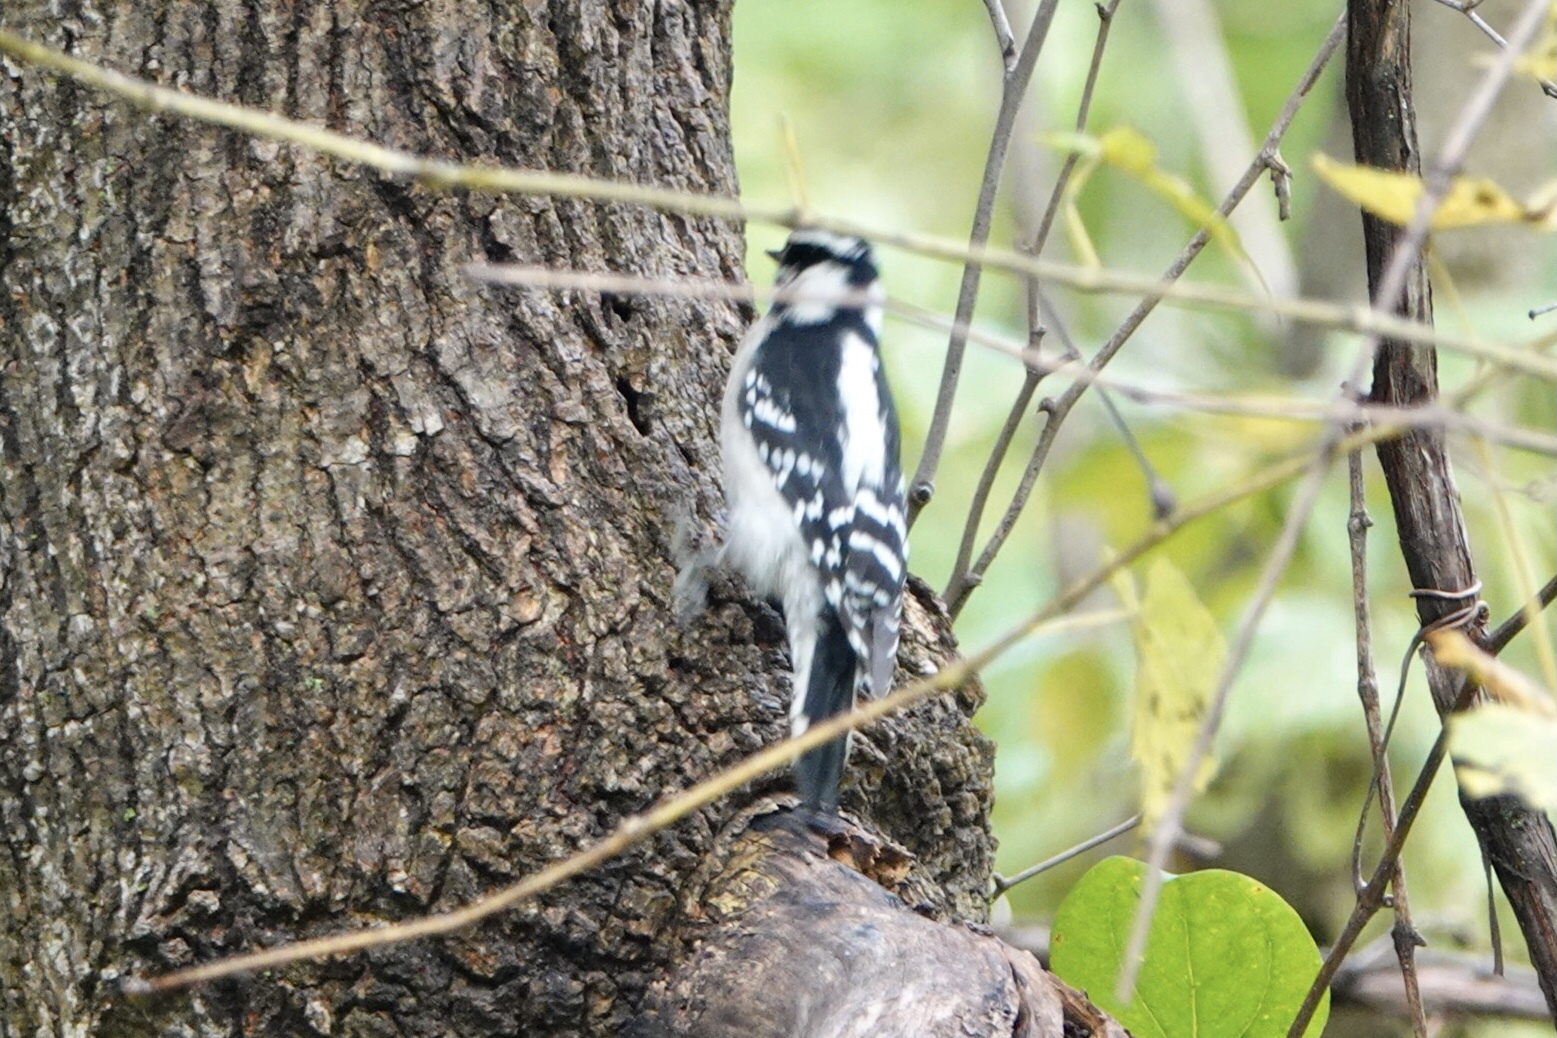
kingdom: Animalia
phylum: Chordata
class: Aves
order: Piciformes
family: Picidae
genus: Dryobates
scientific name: Dryobates pubescens
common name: Downy woodpecker
